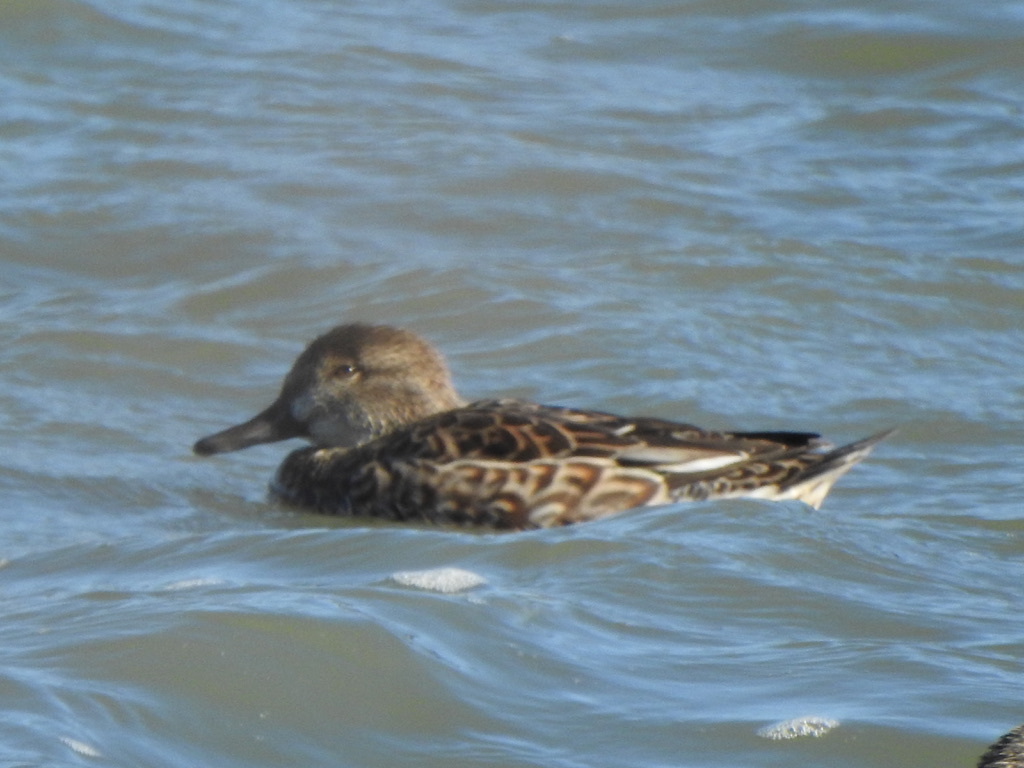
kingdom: Animalia
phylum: Chordata
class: Aves
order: Anseriformes
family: Anatidae
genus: Anas
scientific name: Anas crecca
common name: Eurasian teal
